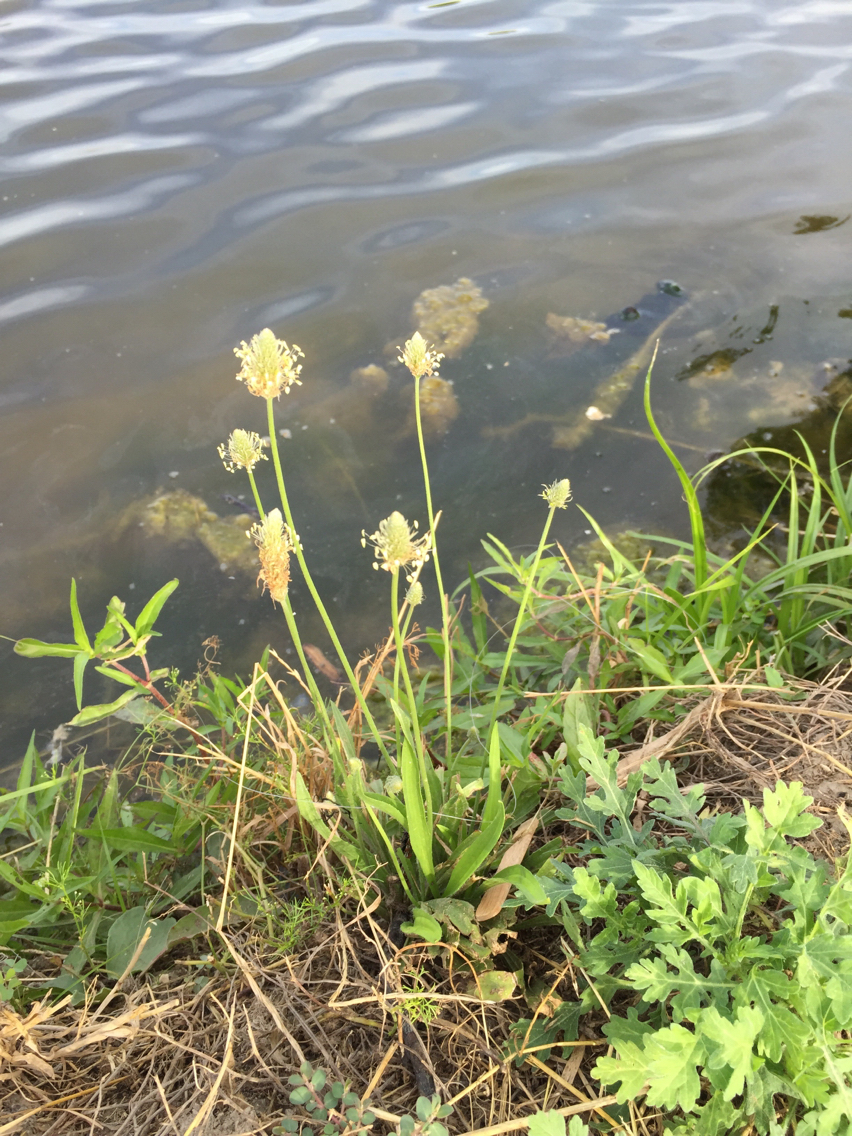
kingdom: Plantae
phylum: Tracheophyta
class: Magnoliopsida
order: Lamiales
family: Plantaginaceae
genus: Plantago
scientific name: Plantago lanceolata
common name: Ribwort plantain
